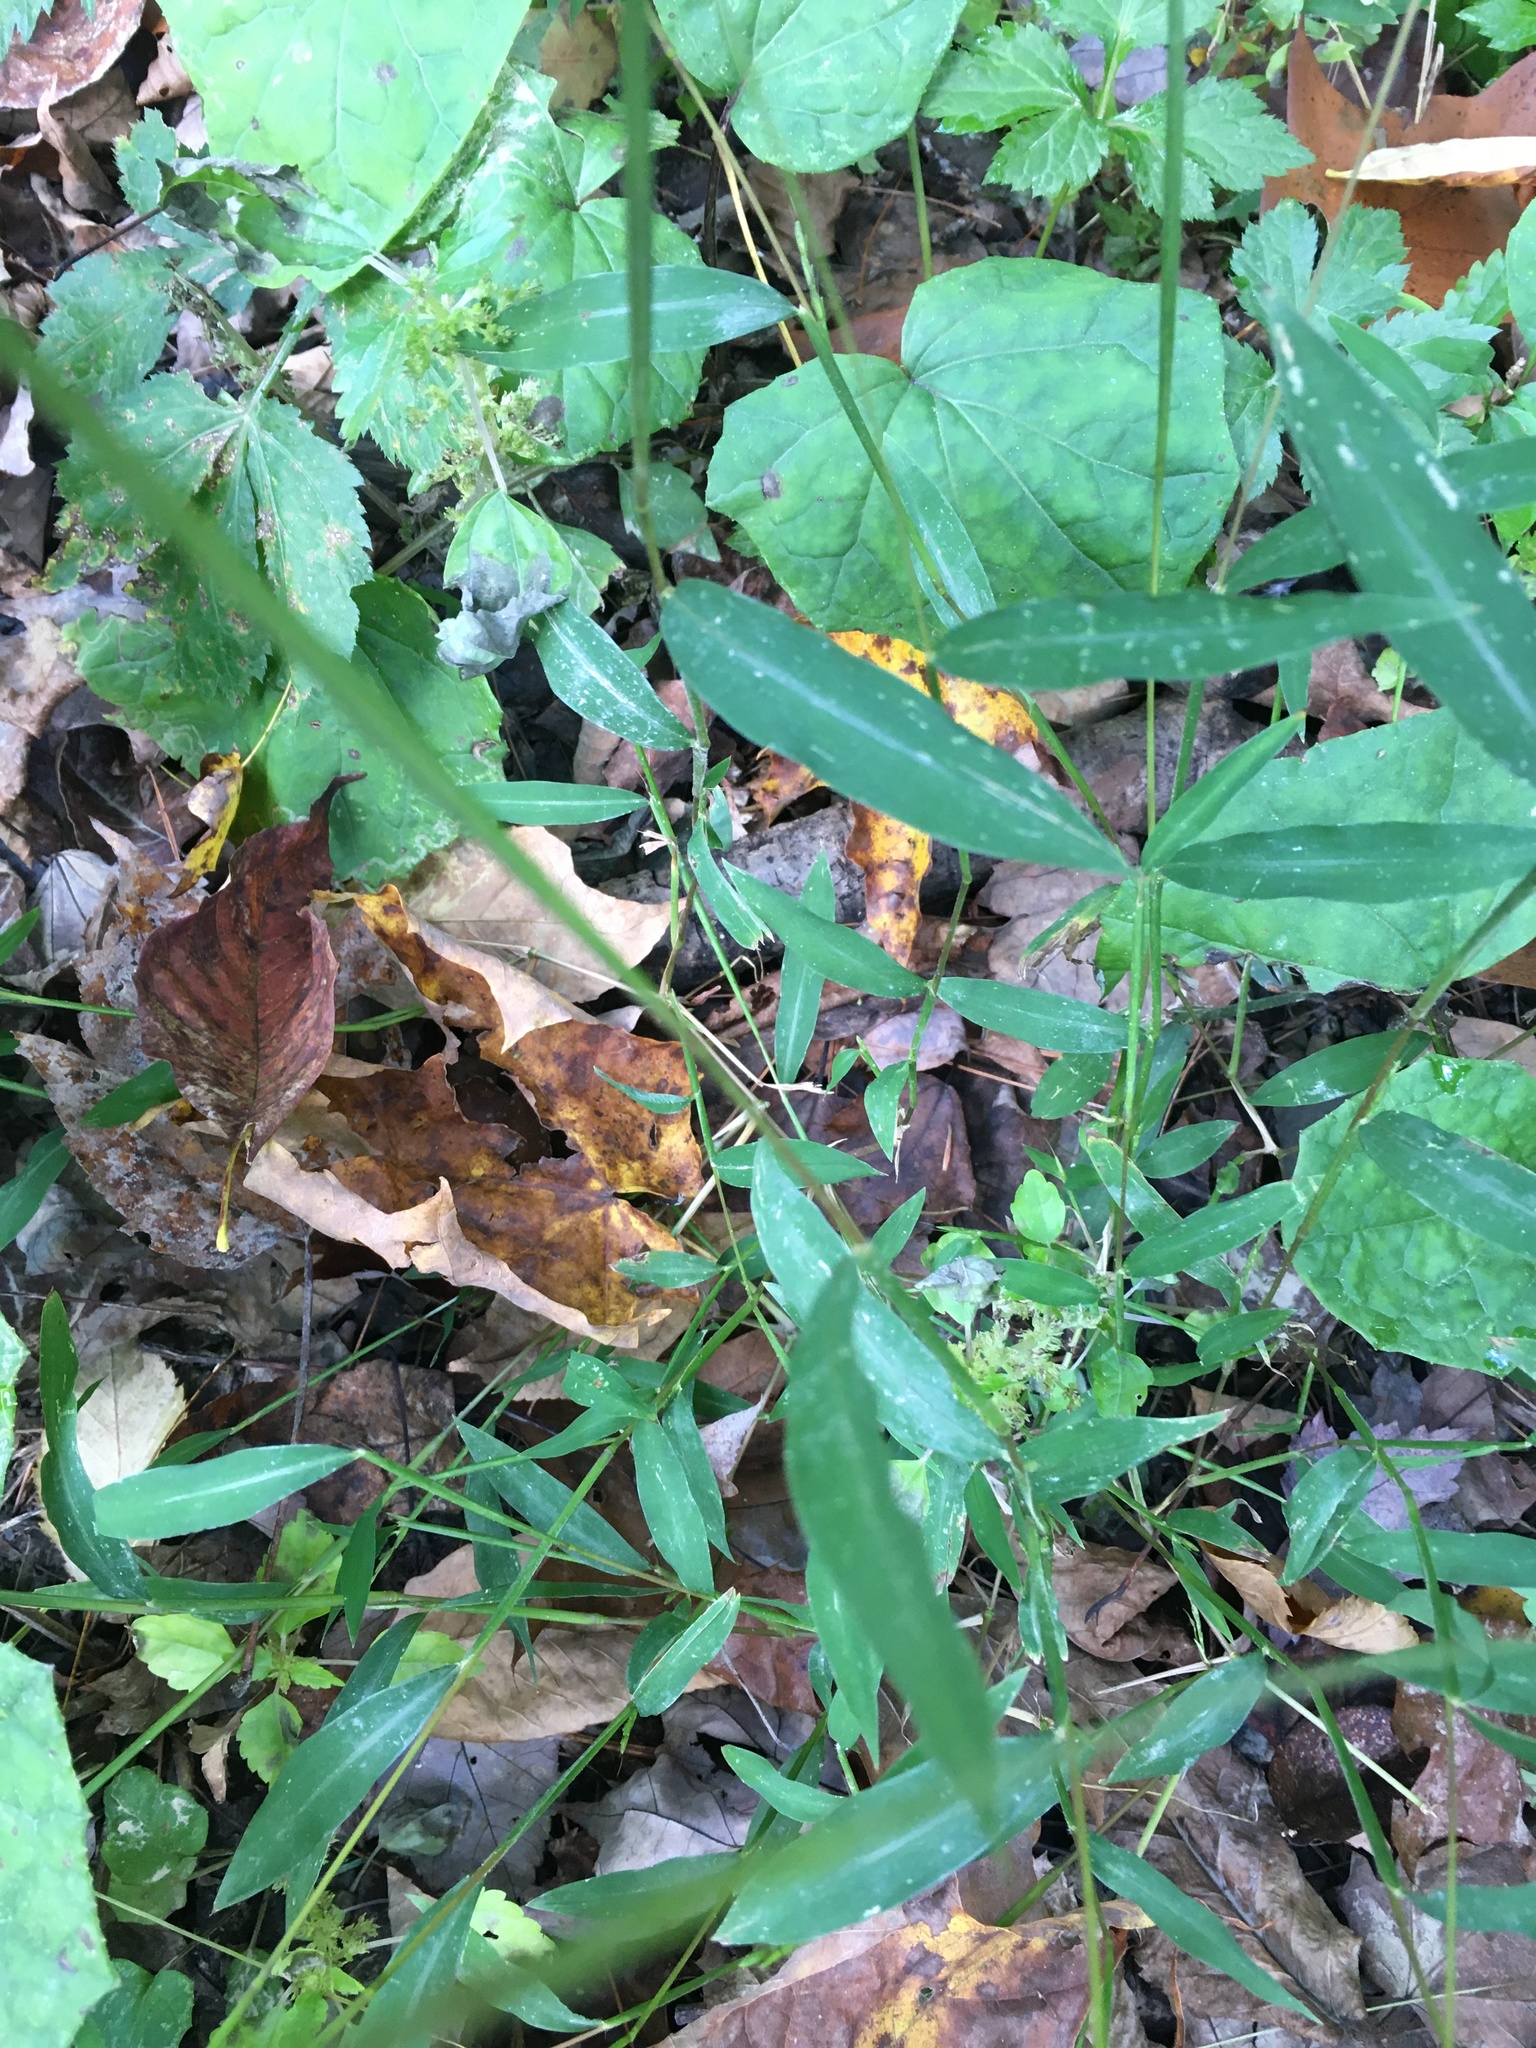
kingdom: Plantae
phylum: Tracheophyta
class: Liliopsida
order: Poales
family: Poaceae
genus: Microstegium
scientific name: Microstegium vimineum
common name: Japanese stiltgrass
